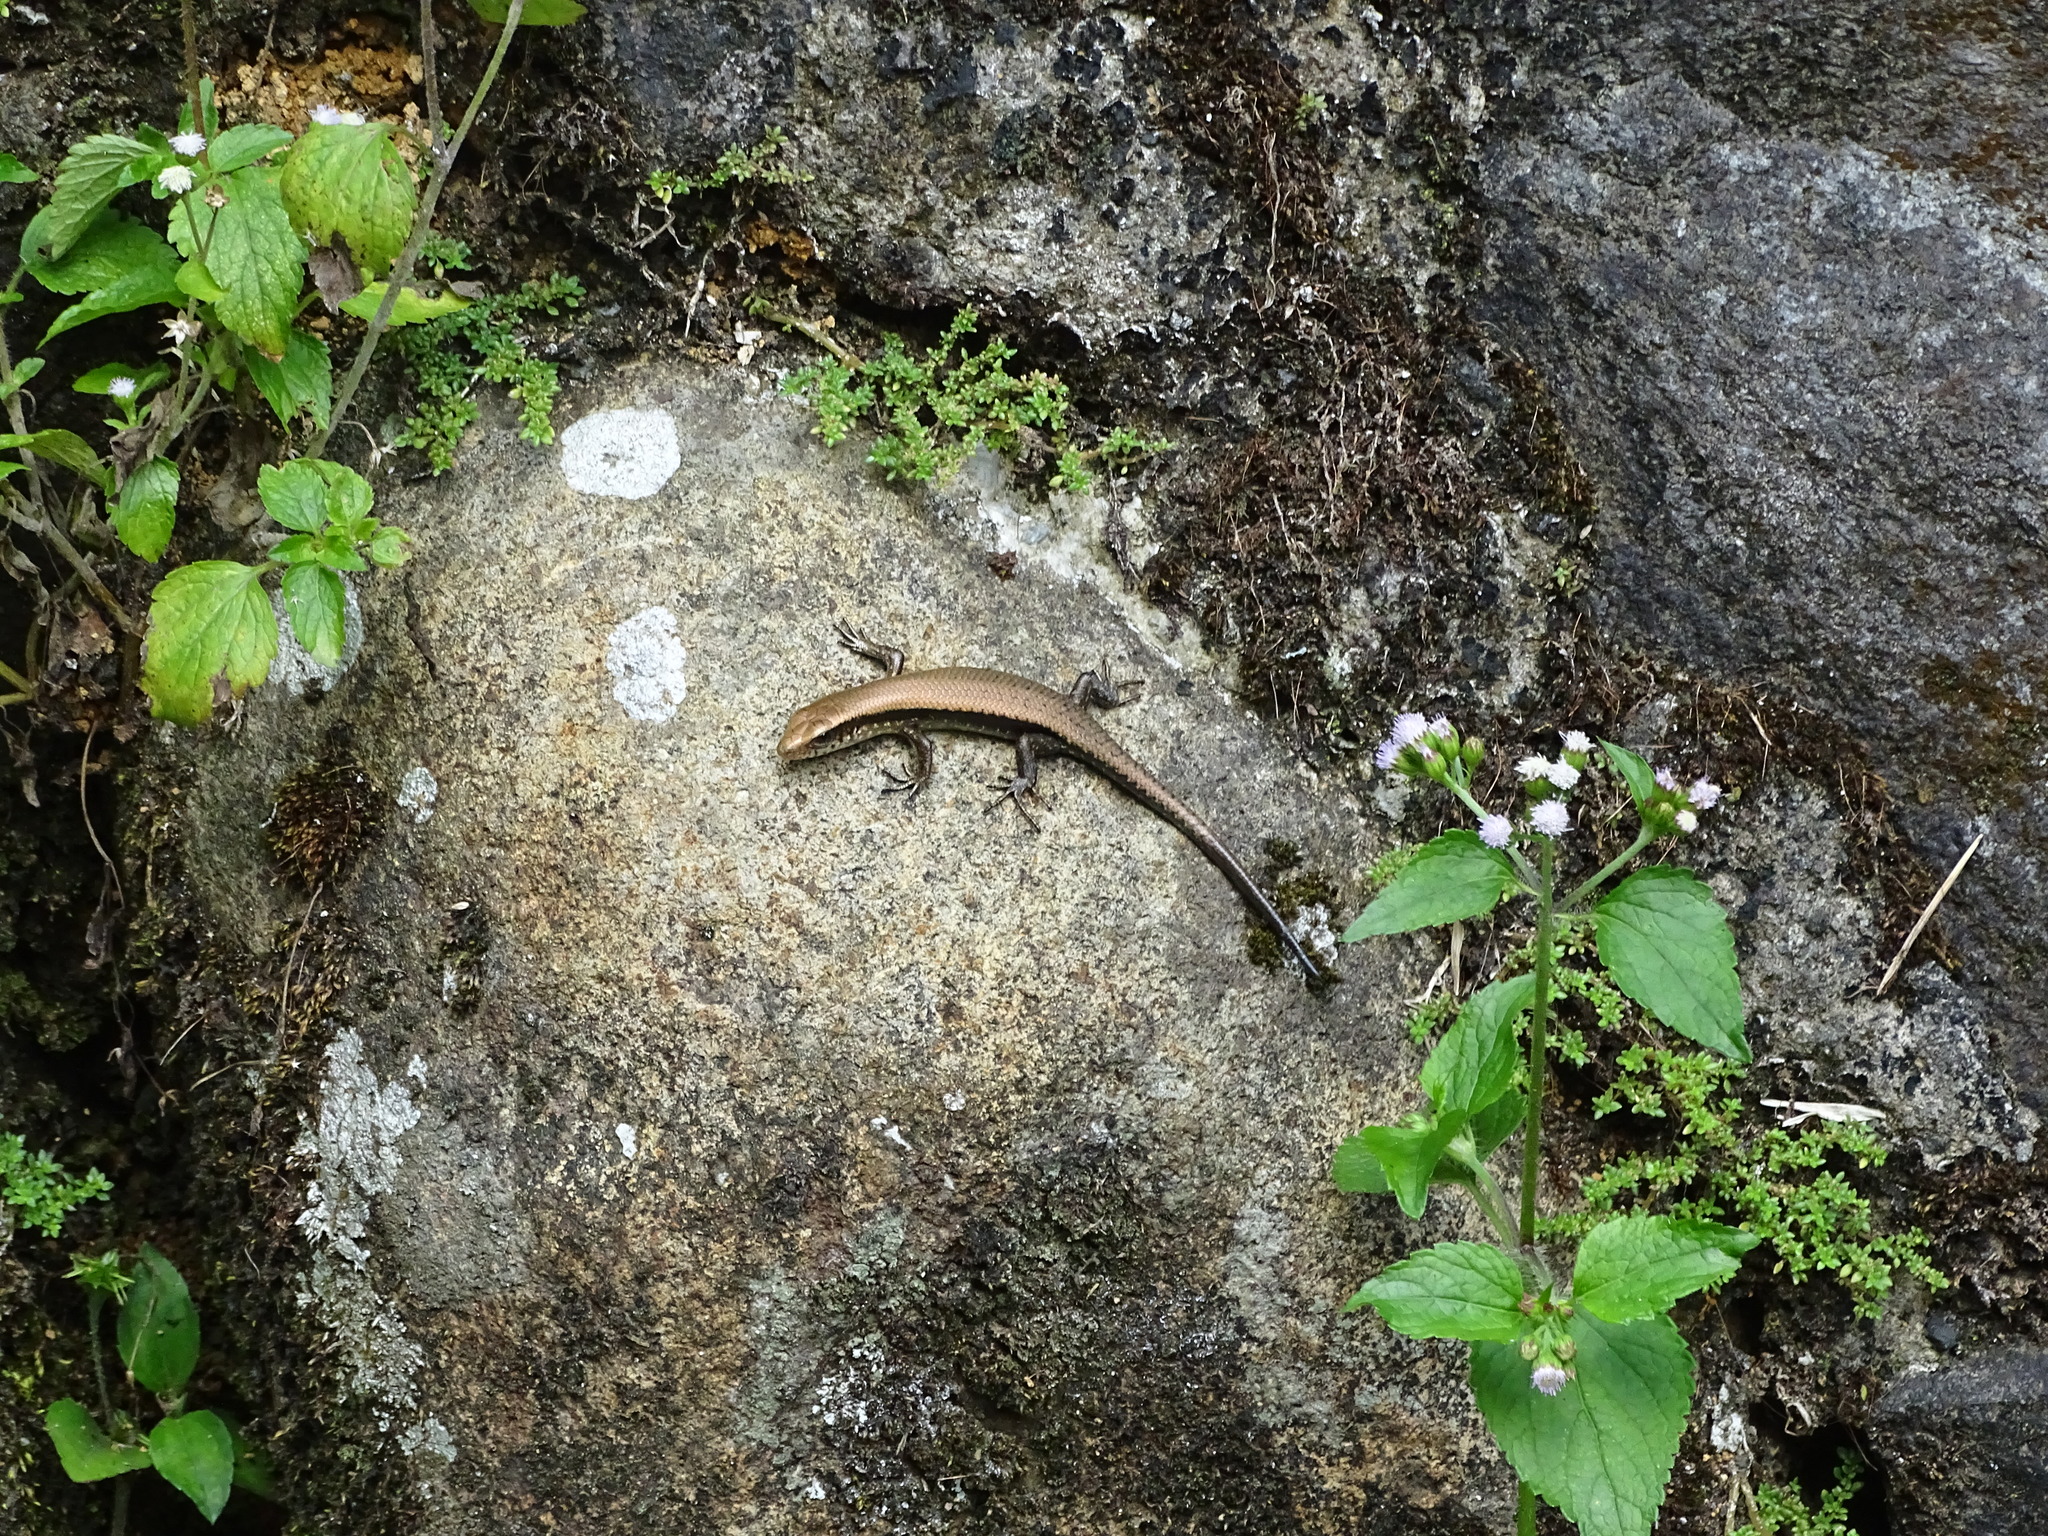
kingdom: Animalia
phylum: Chordata
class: Squamata
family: Scincidae
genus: Eutropis
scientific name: Eutropis multifasciata
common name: Common mabuya
